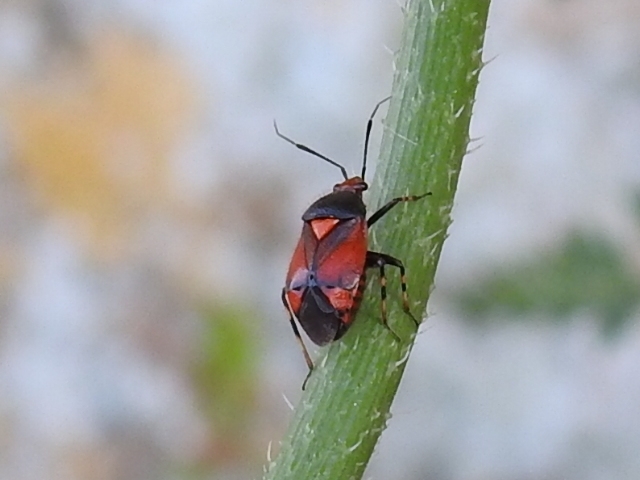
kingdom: Animalia
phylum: Arthropoda
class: Insecta
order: Hemiptera
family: Miridae
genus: Deraeocoris
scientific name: Deraeocoris schach
